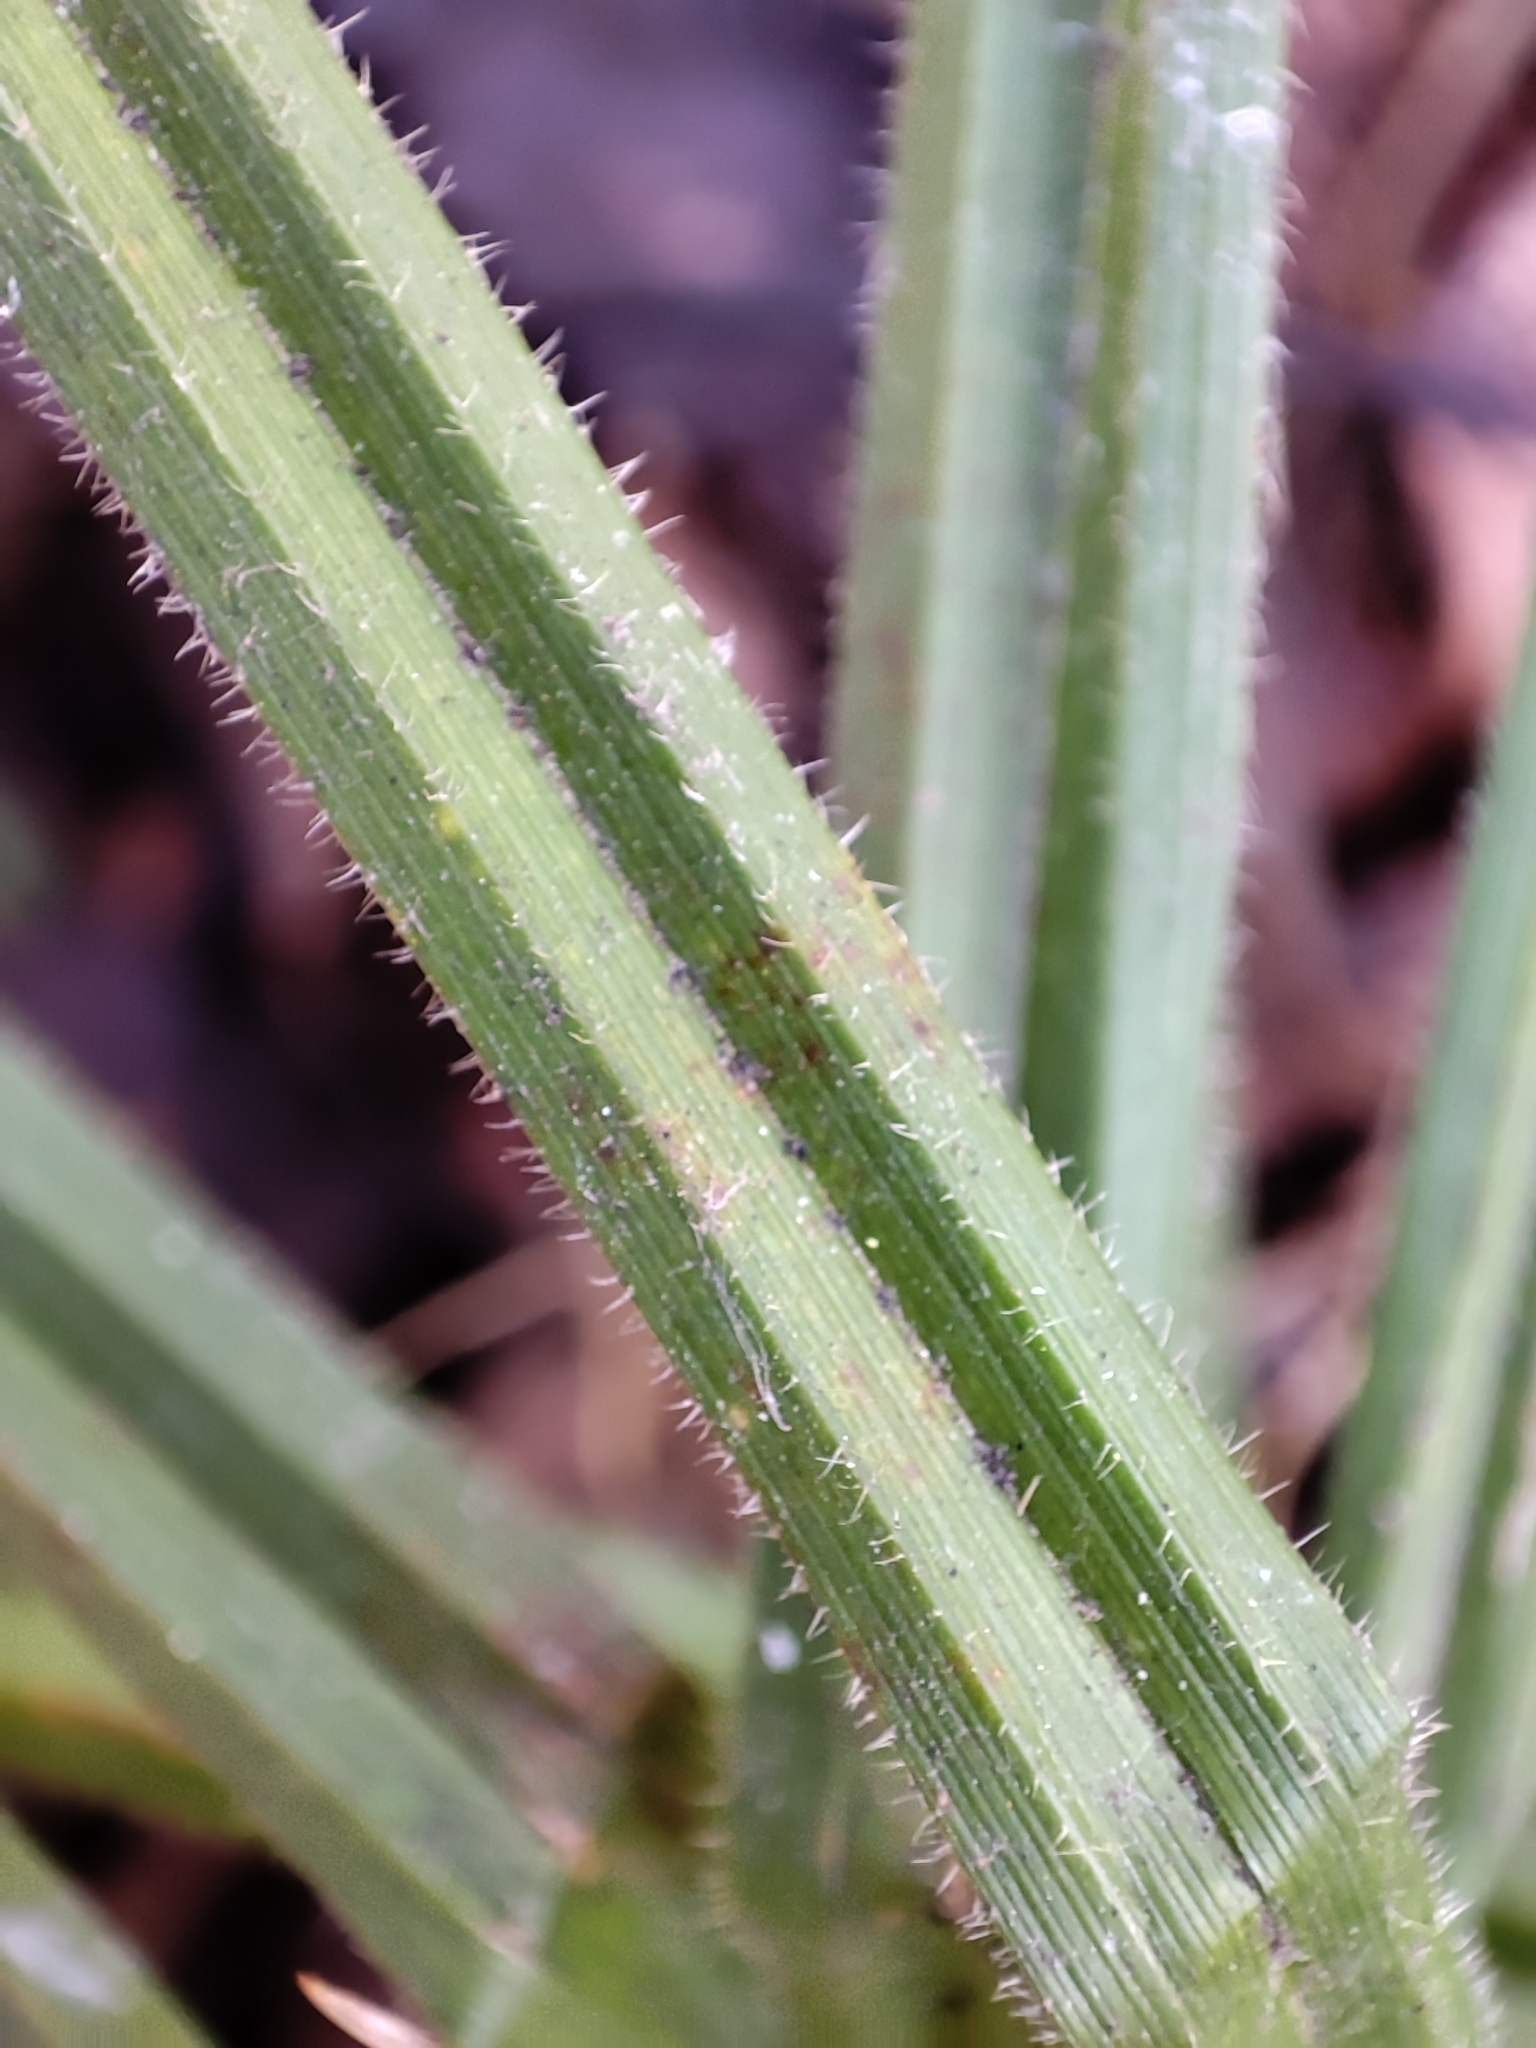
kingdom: Plantae
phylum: Tracheophyta
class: Liliopsida
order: Poales
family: Cyperaceae
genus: Carex
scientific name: Carex pilosa
